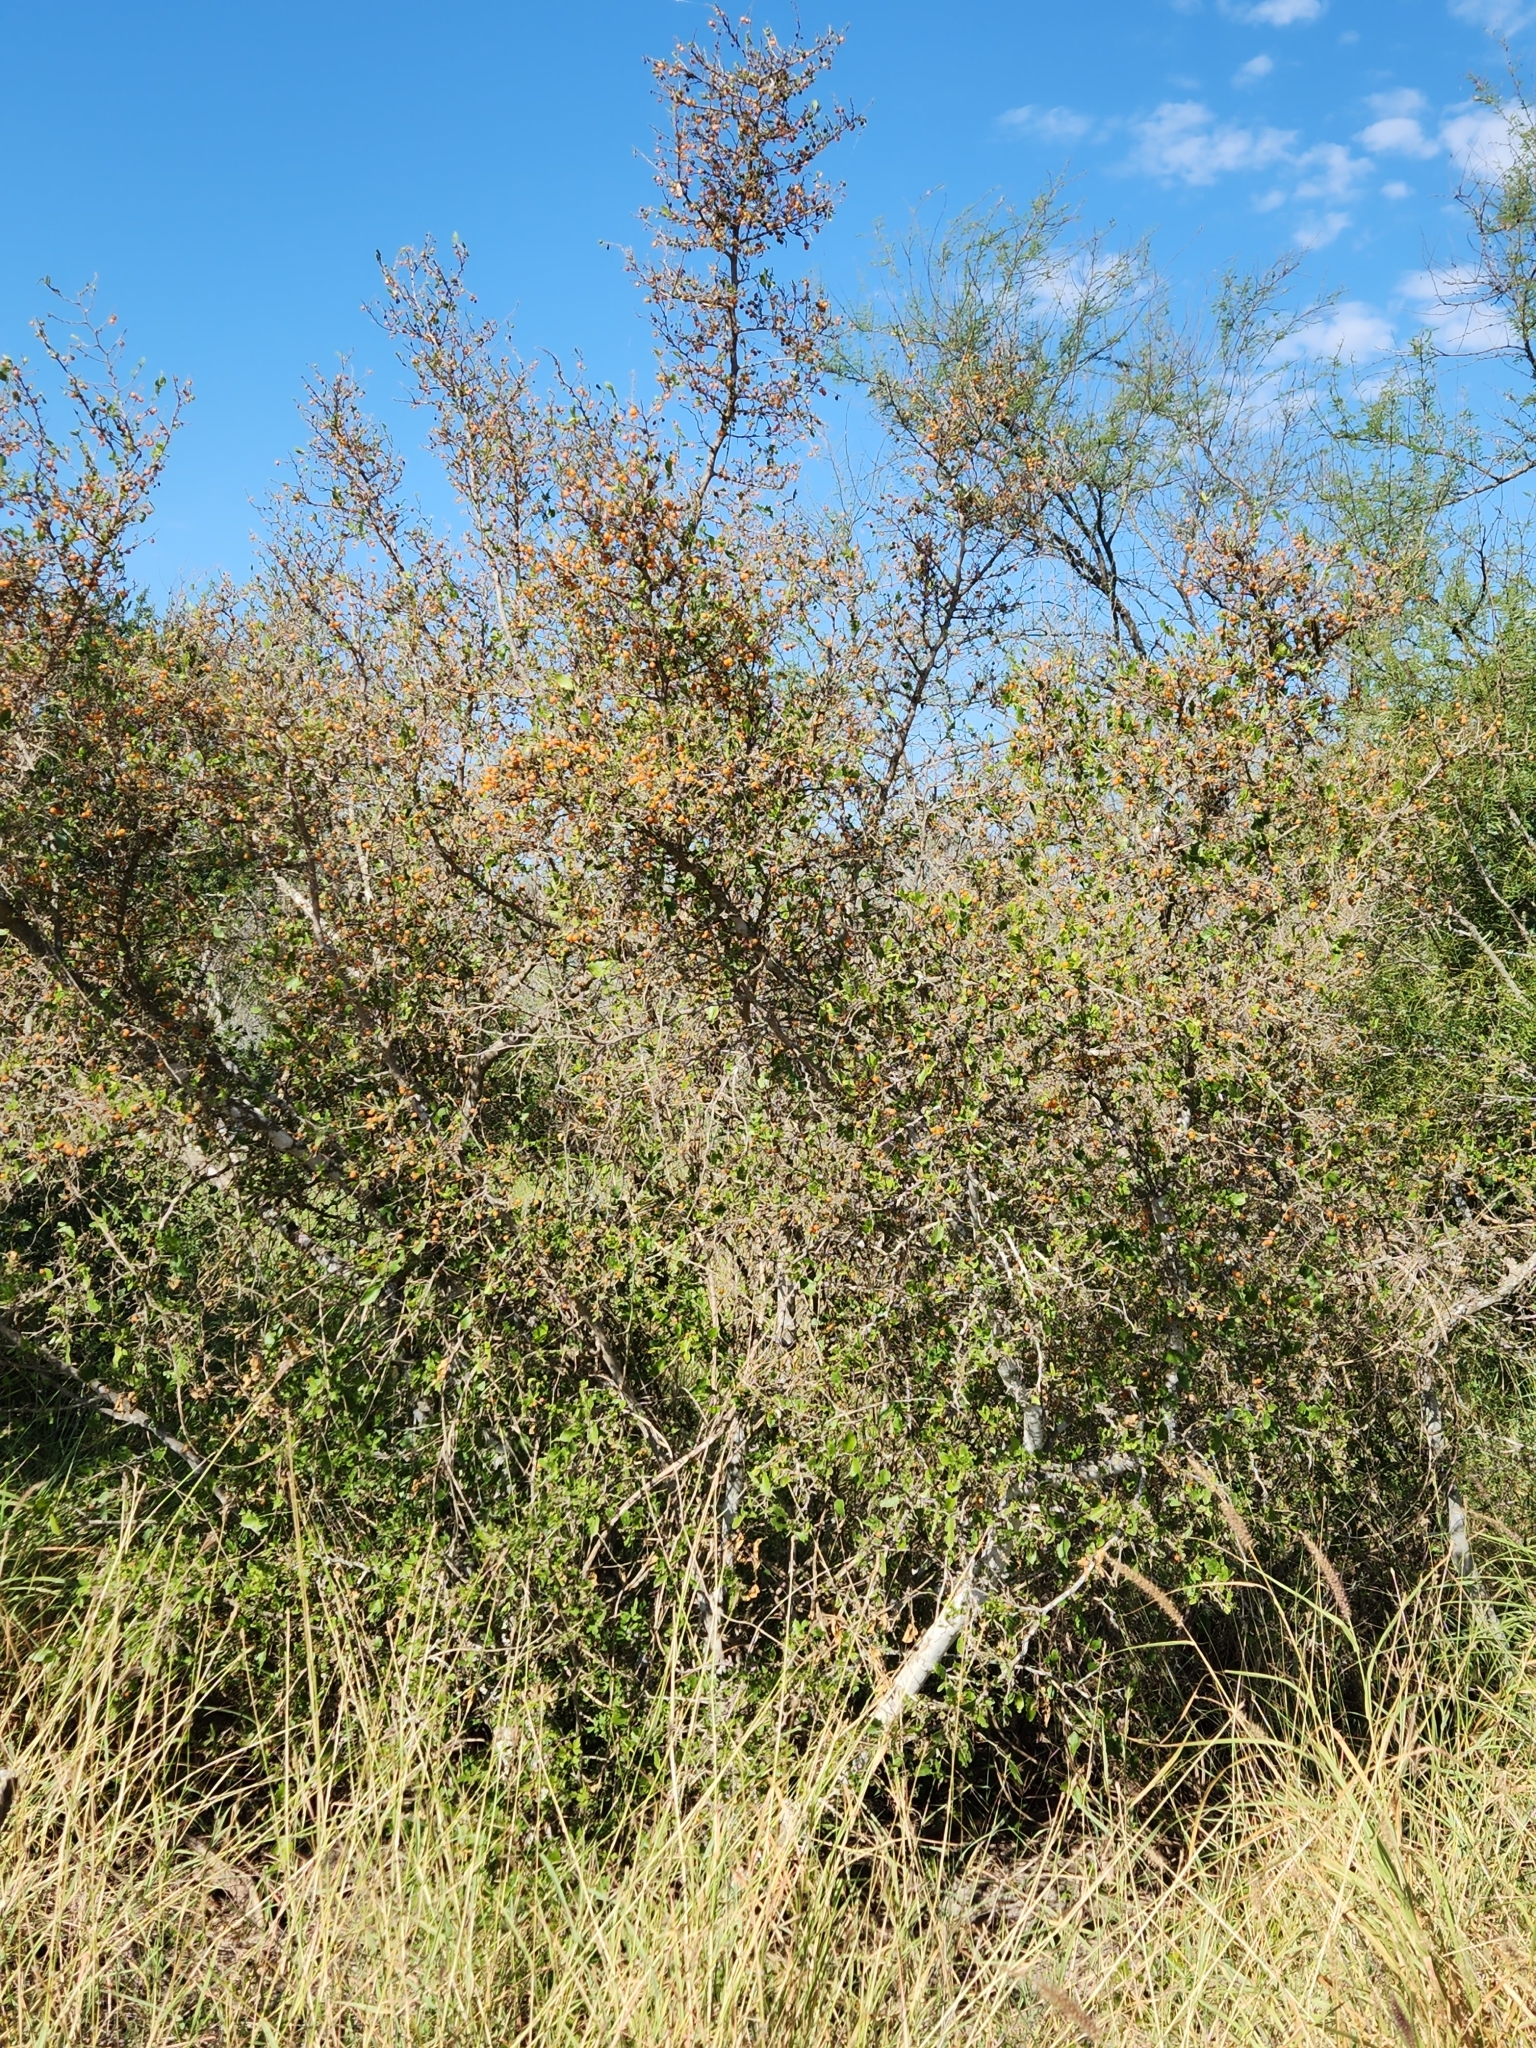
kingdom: Plantae
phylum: Tracheophyta
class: Magnoliopsida
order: Rosales
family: Cannabaceae
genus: Celtis
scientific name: Celtis pallida
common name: Desert hackberry
